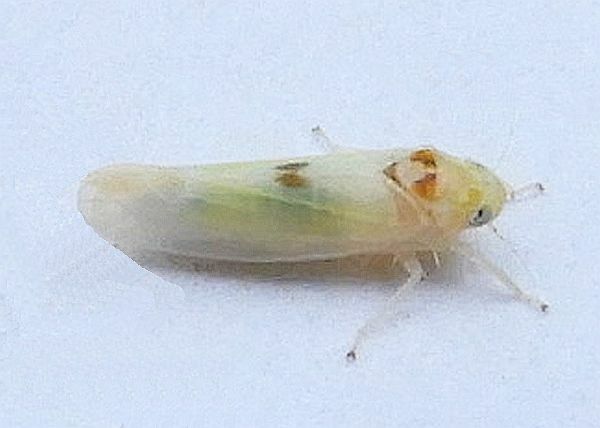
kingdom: Animalia
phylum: Arthropoda
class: Insecta
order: Hemiptera
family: Cicadellidae
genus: Empoa
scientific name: Empoa albicans
